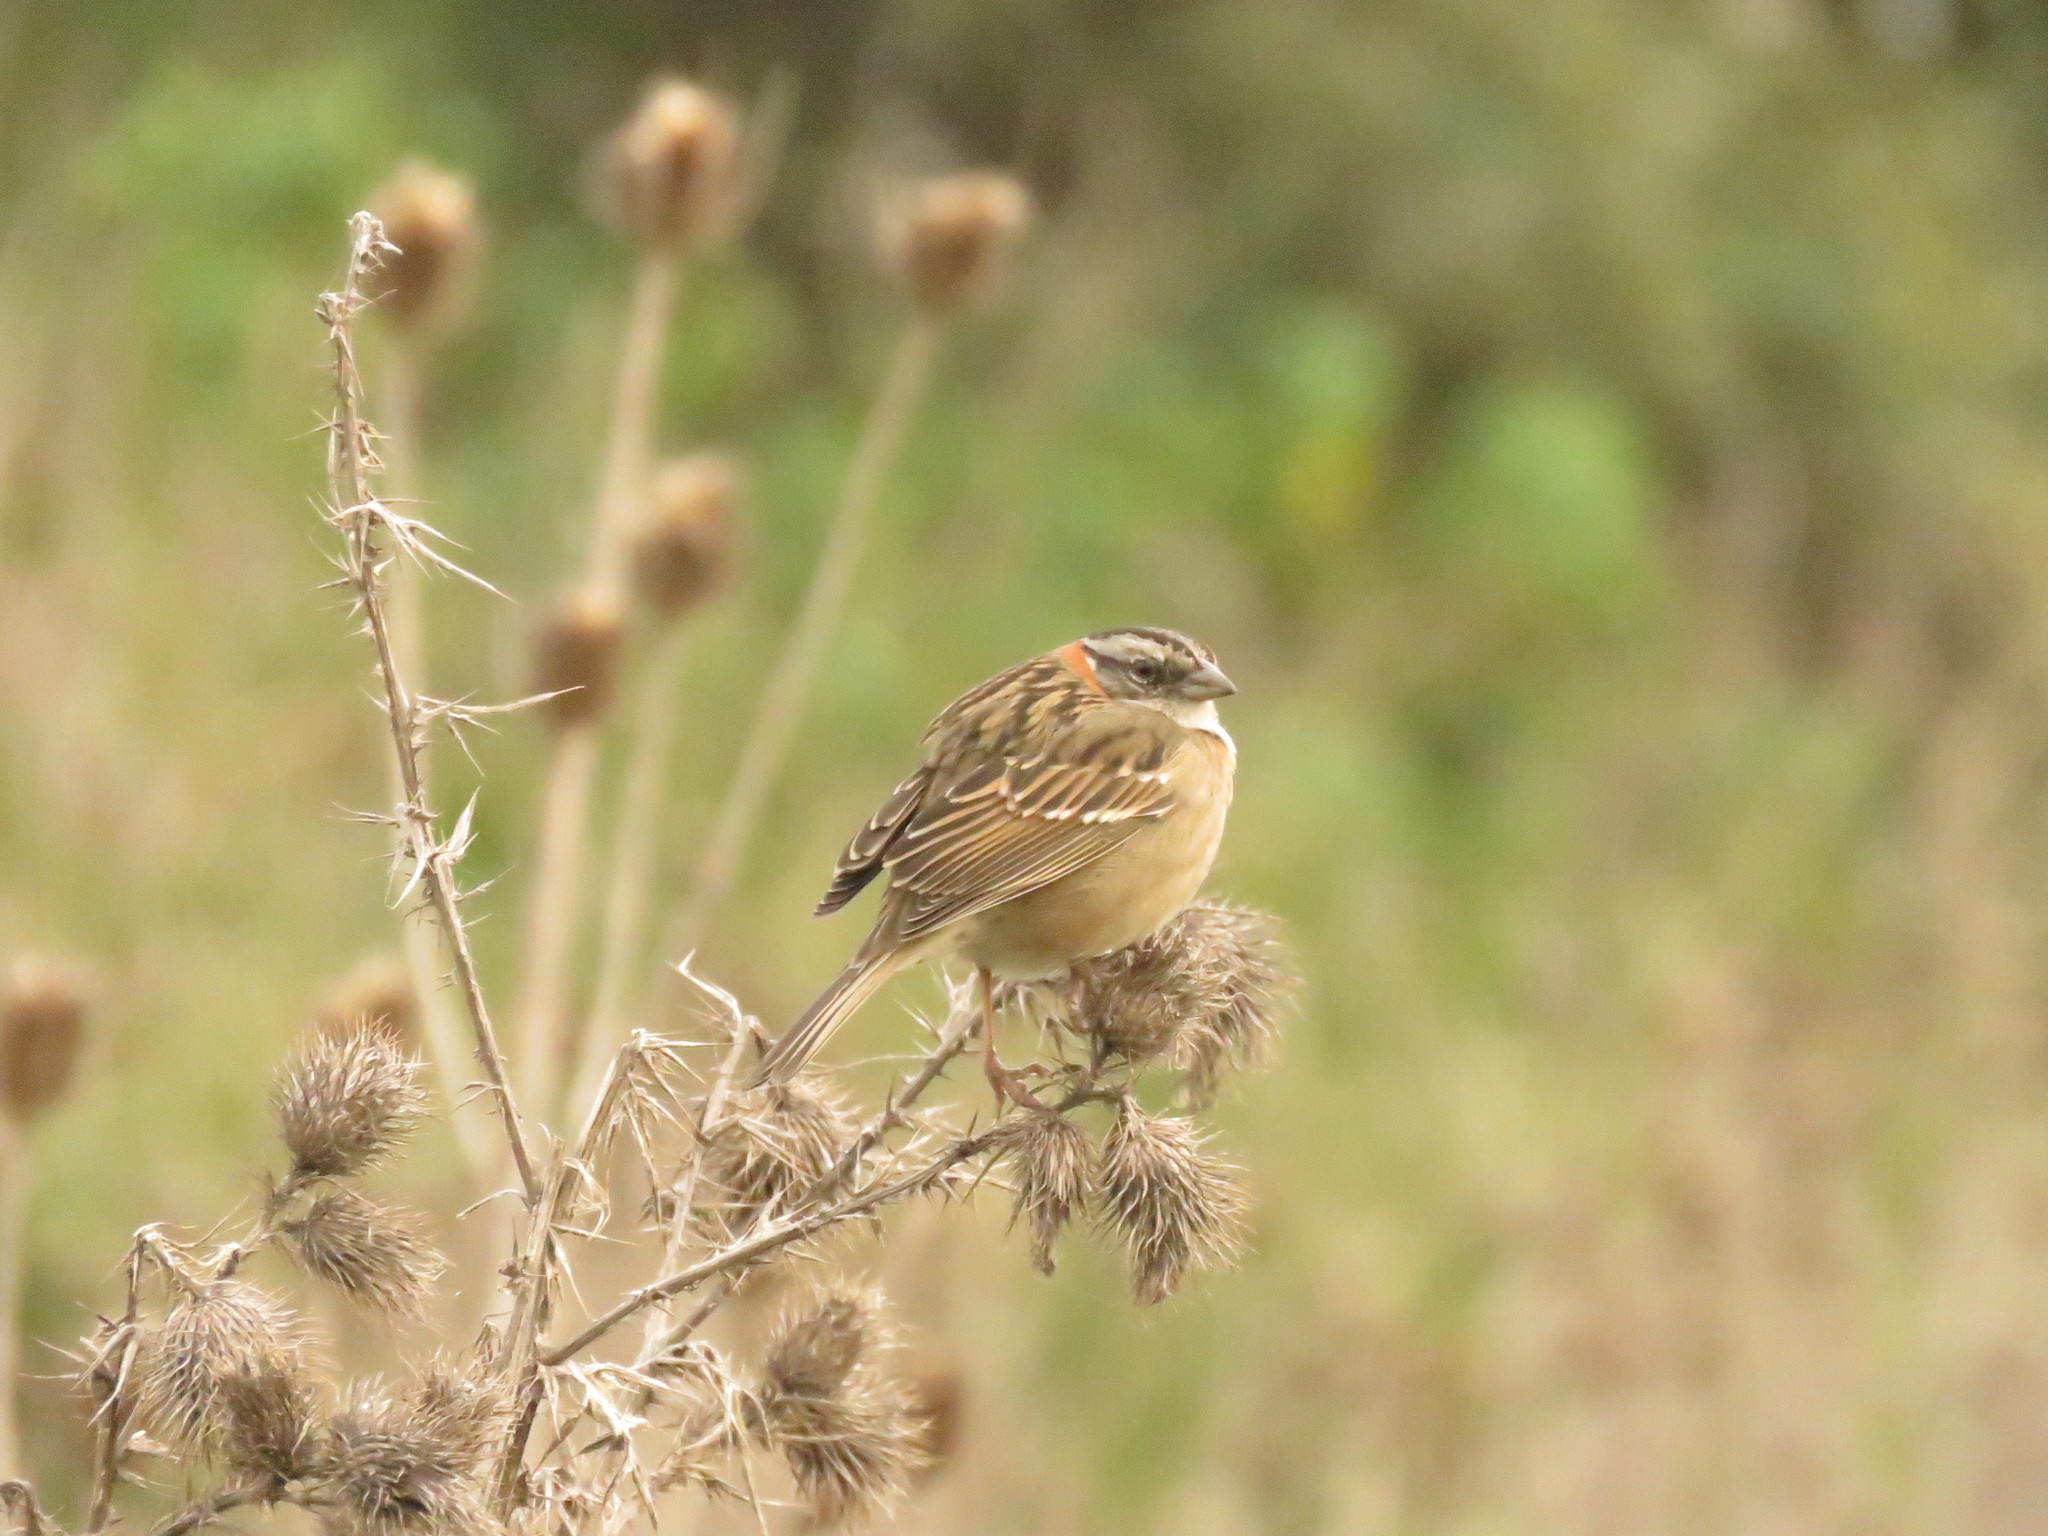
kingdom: Animalia
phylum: Chordata
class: Aves
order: Passeriformes
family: Passerellidae
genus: Zonotrichia
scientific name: Zonotrichia capensis
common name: Rufous-collared sparrow
